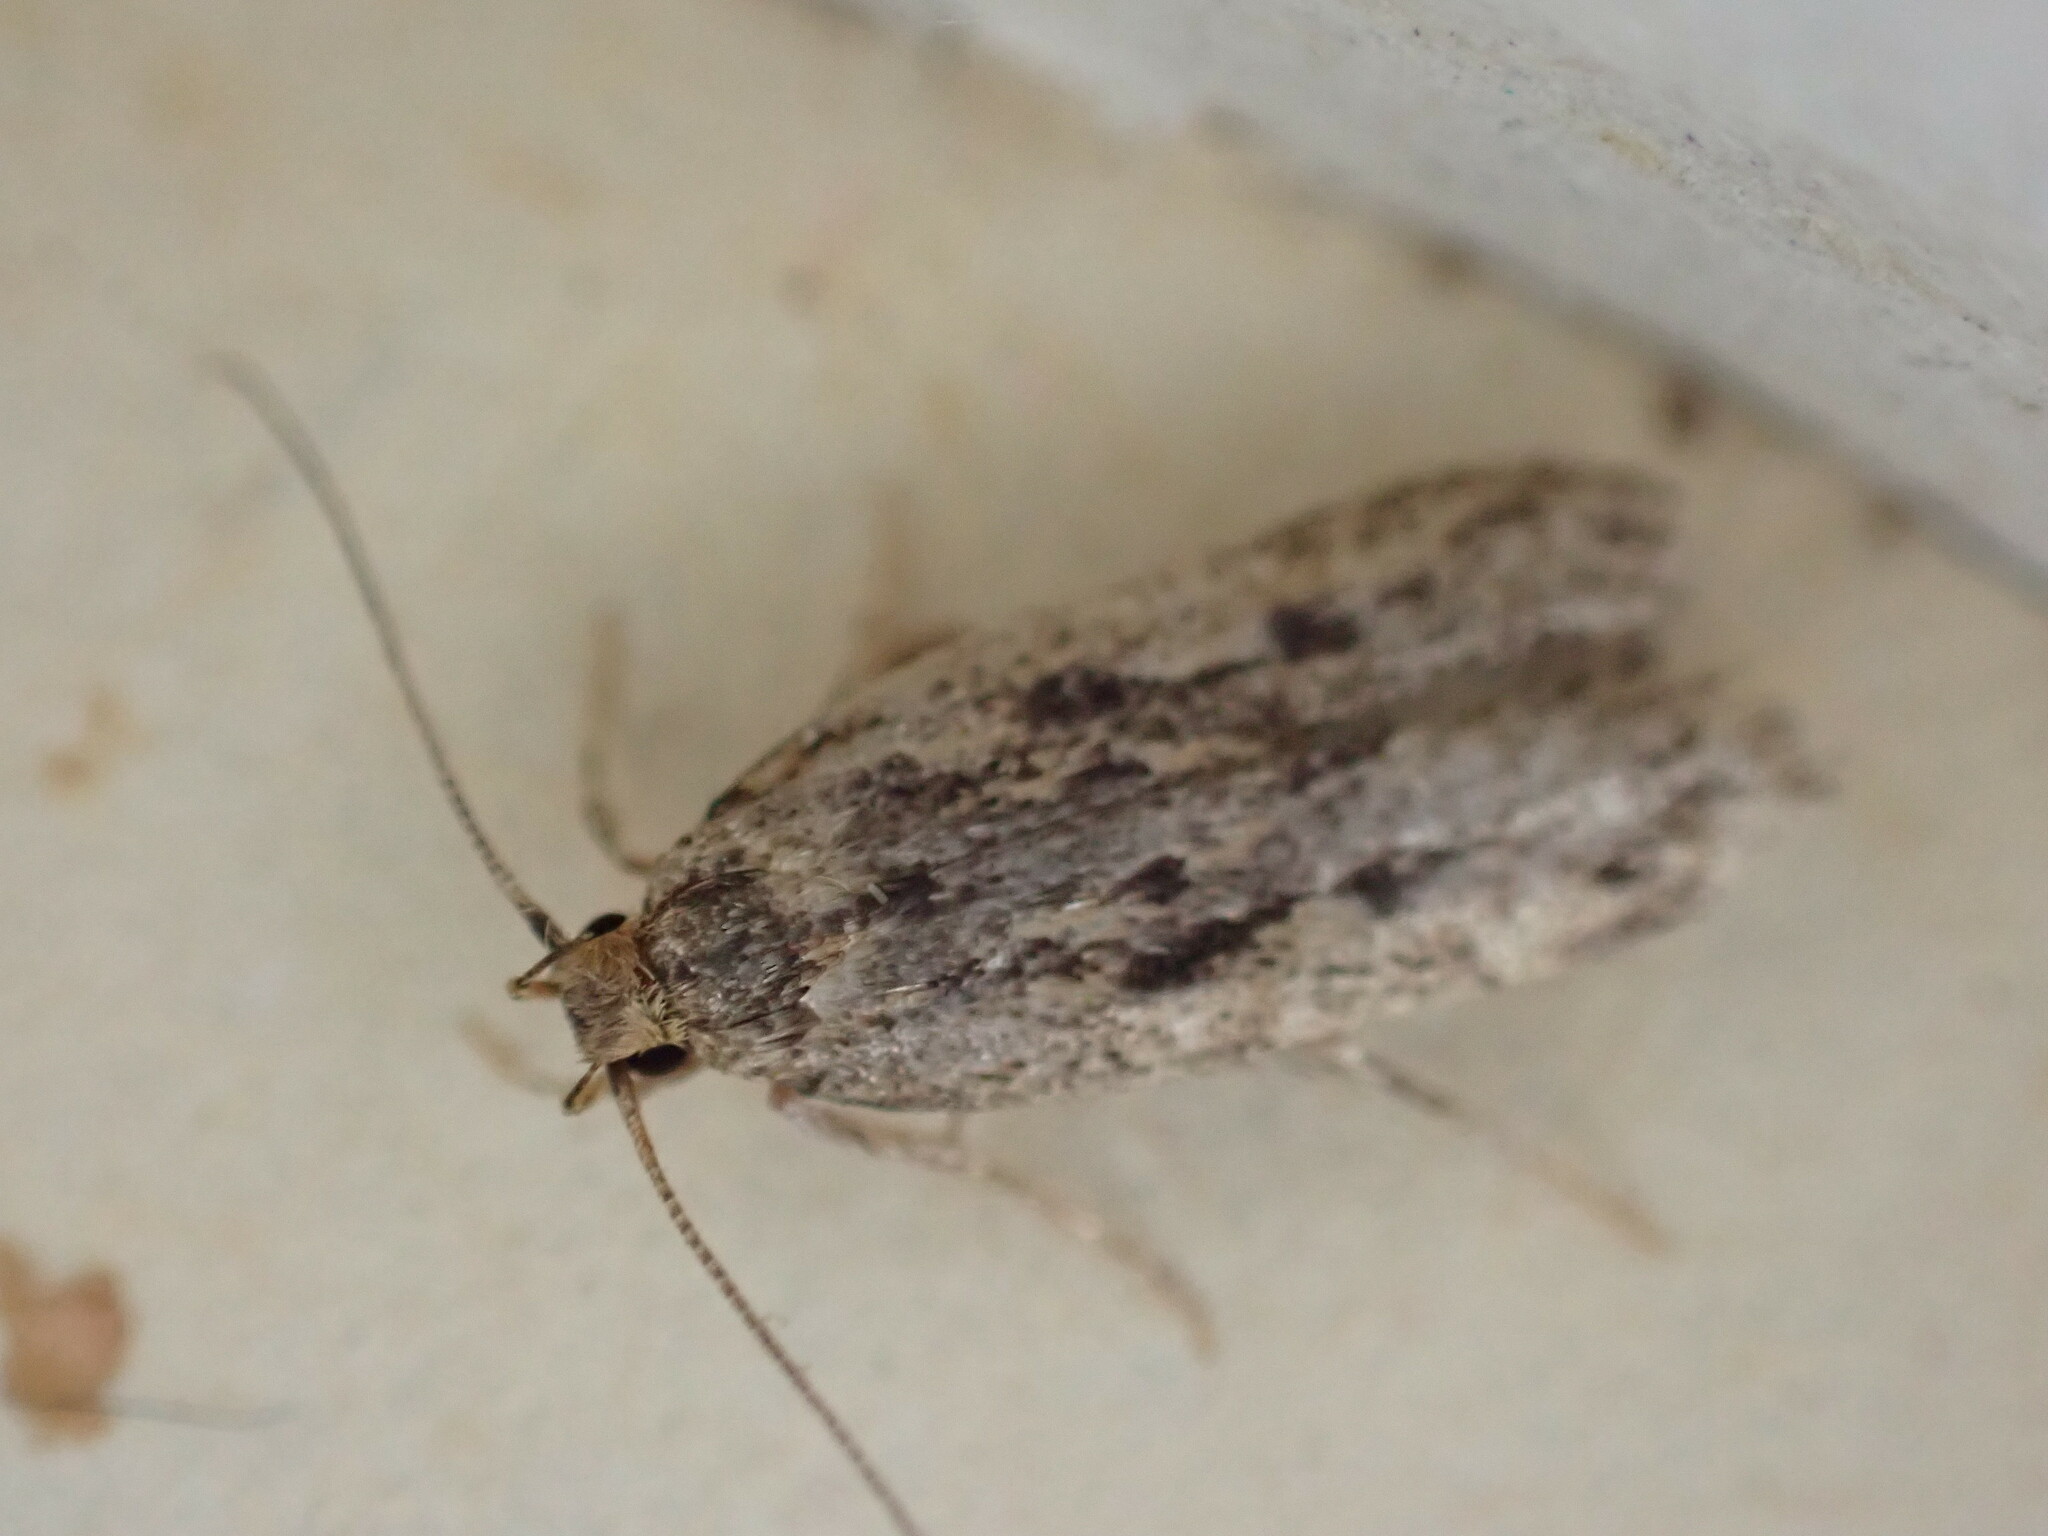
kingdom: Animalia
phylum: Arthropoda
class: Insecta
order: Lepidoptera
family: Oecophoridae
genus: Hofmannophila
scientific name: Hofmannophila pseudospretella
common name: Brown house moth
